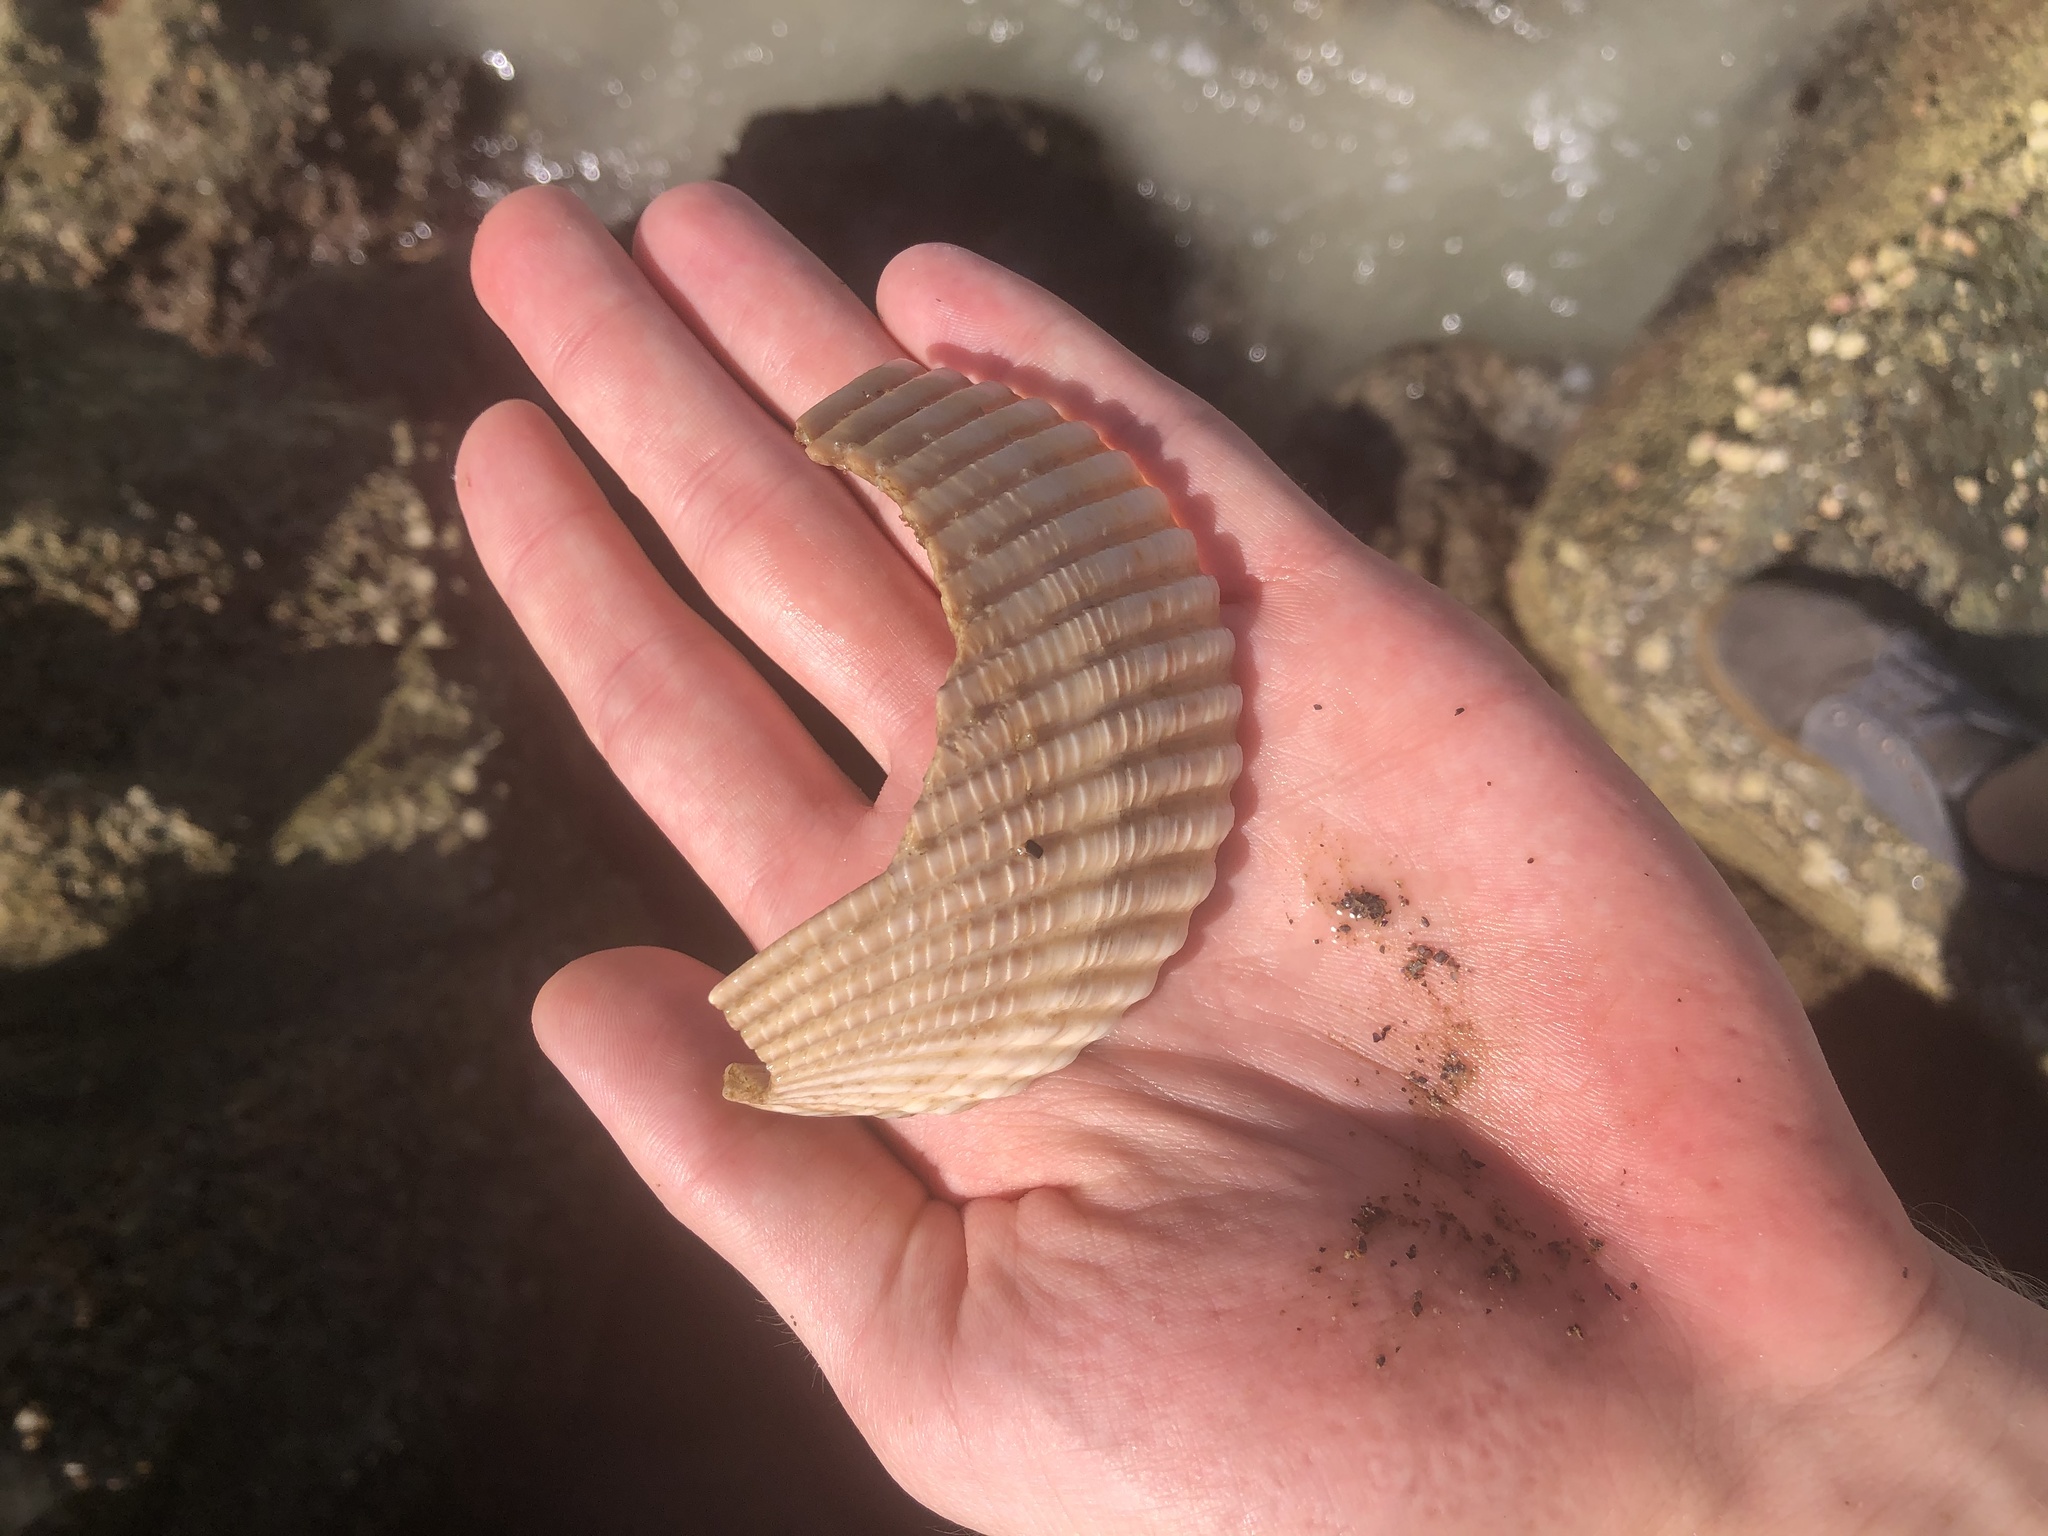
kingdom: Animalia
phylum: Mollusca
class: Bivalvia
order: Cardiida
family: Cardiidae
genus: Dinocardium
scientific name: Dinocardium robustum
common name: Atlantic giant cockle
